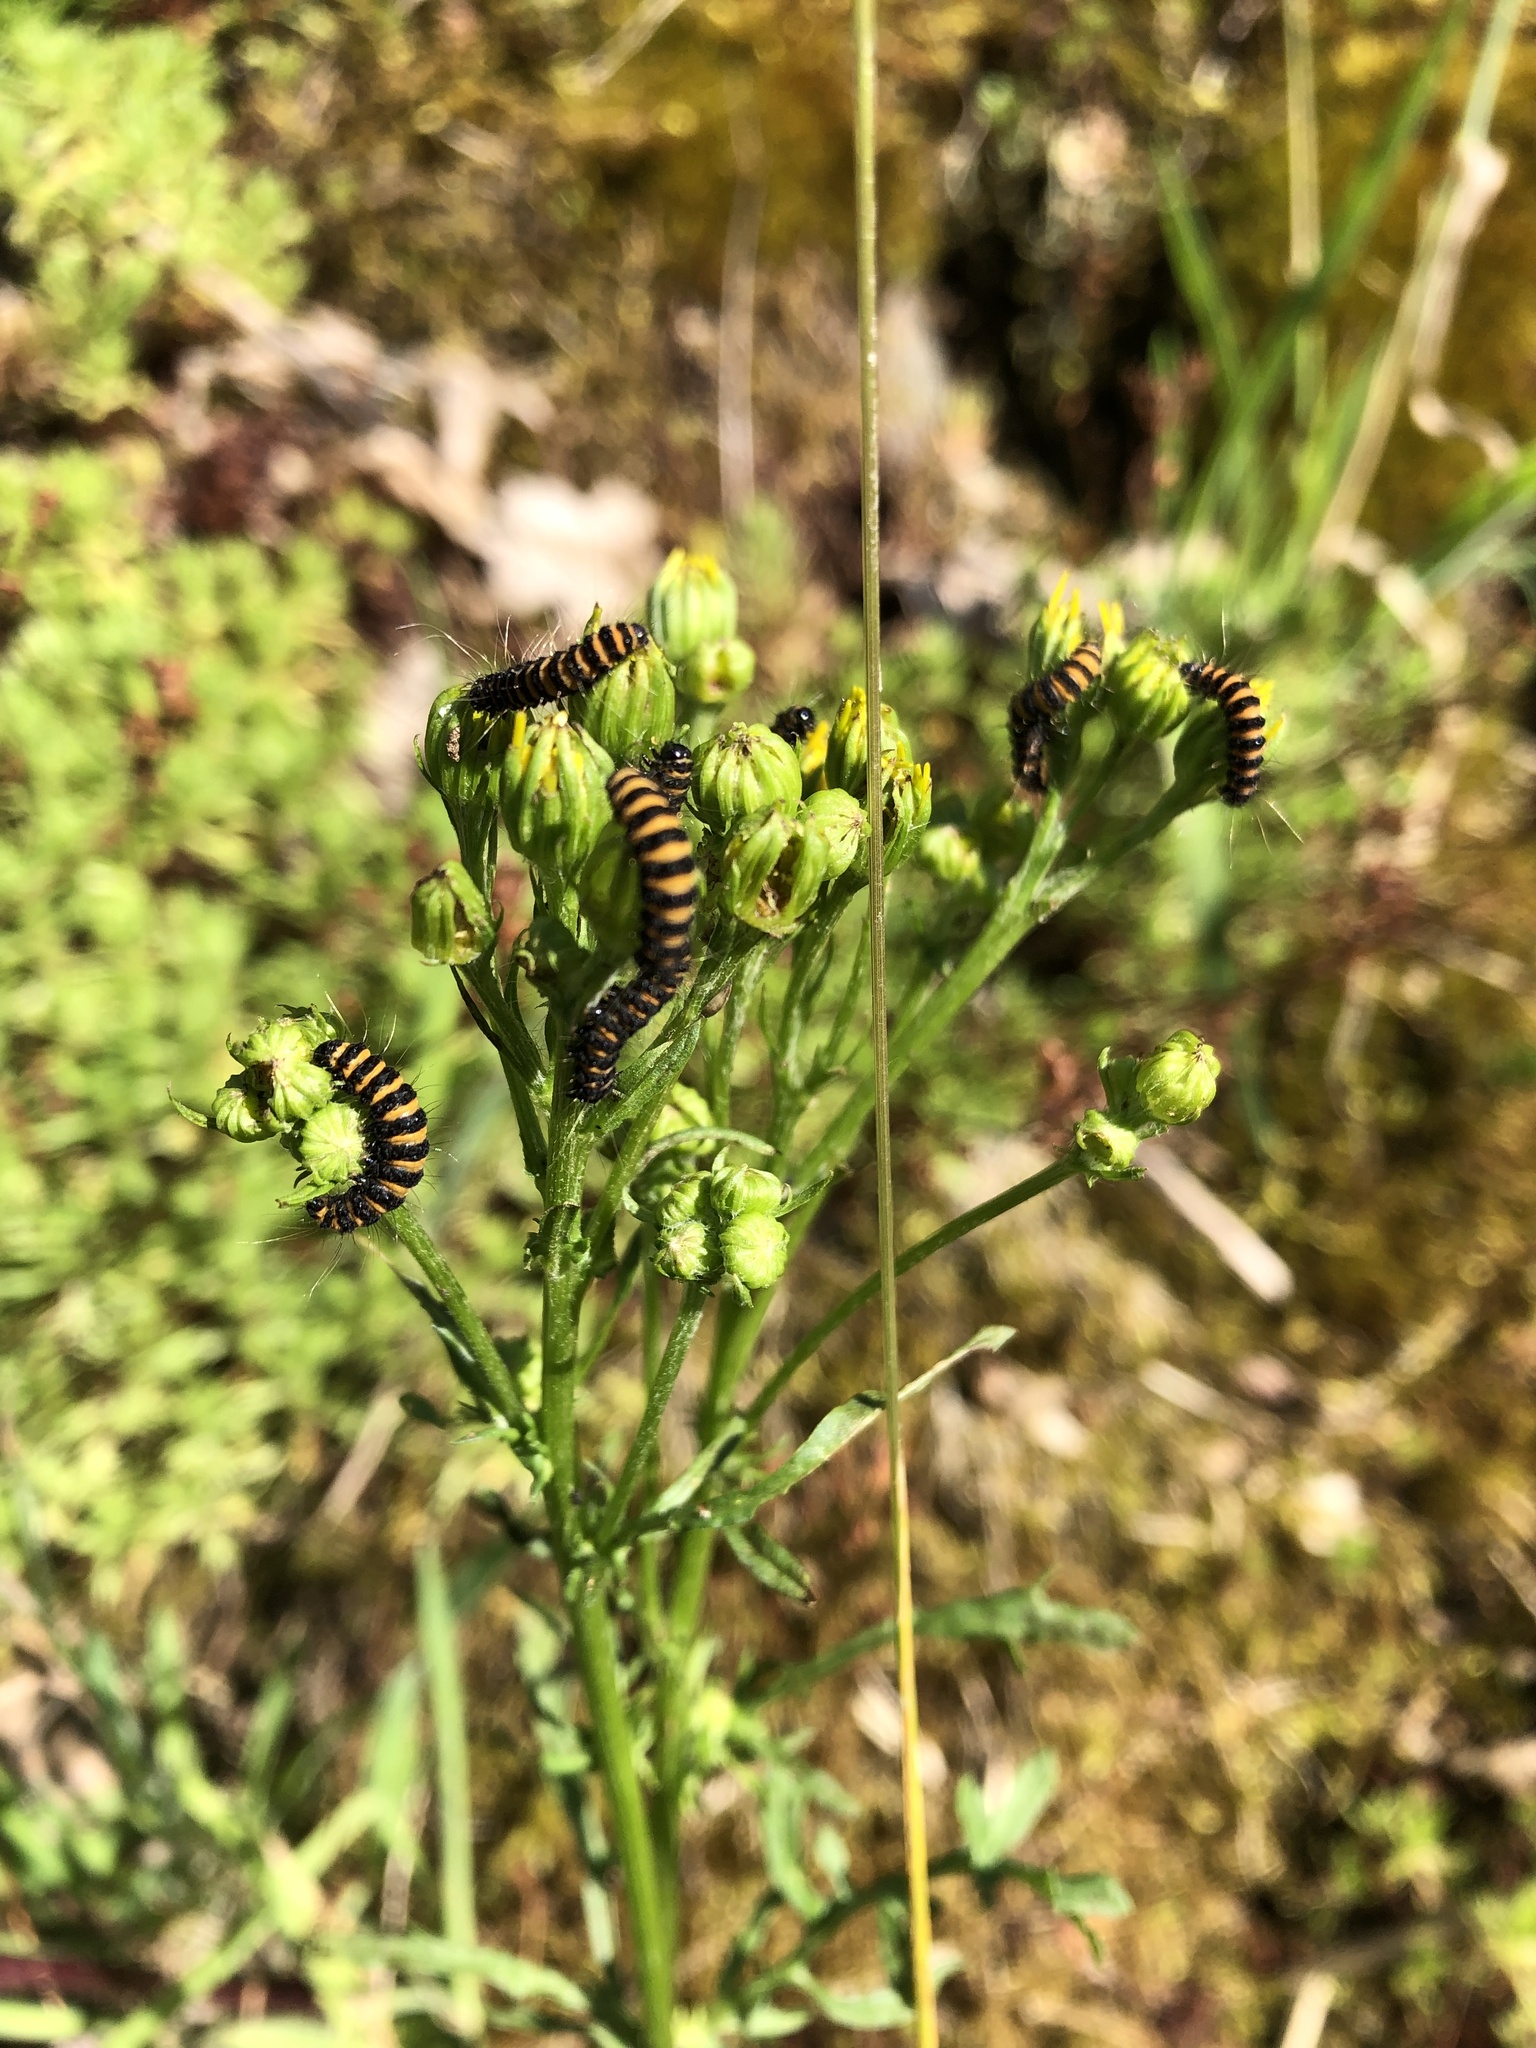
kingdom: Animalia
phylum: Arthropoda
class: Insecta
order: Lepidoptera
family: Erebidae
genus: Tyria
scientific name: Tyria jacobaeae
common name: Cinnabar
